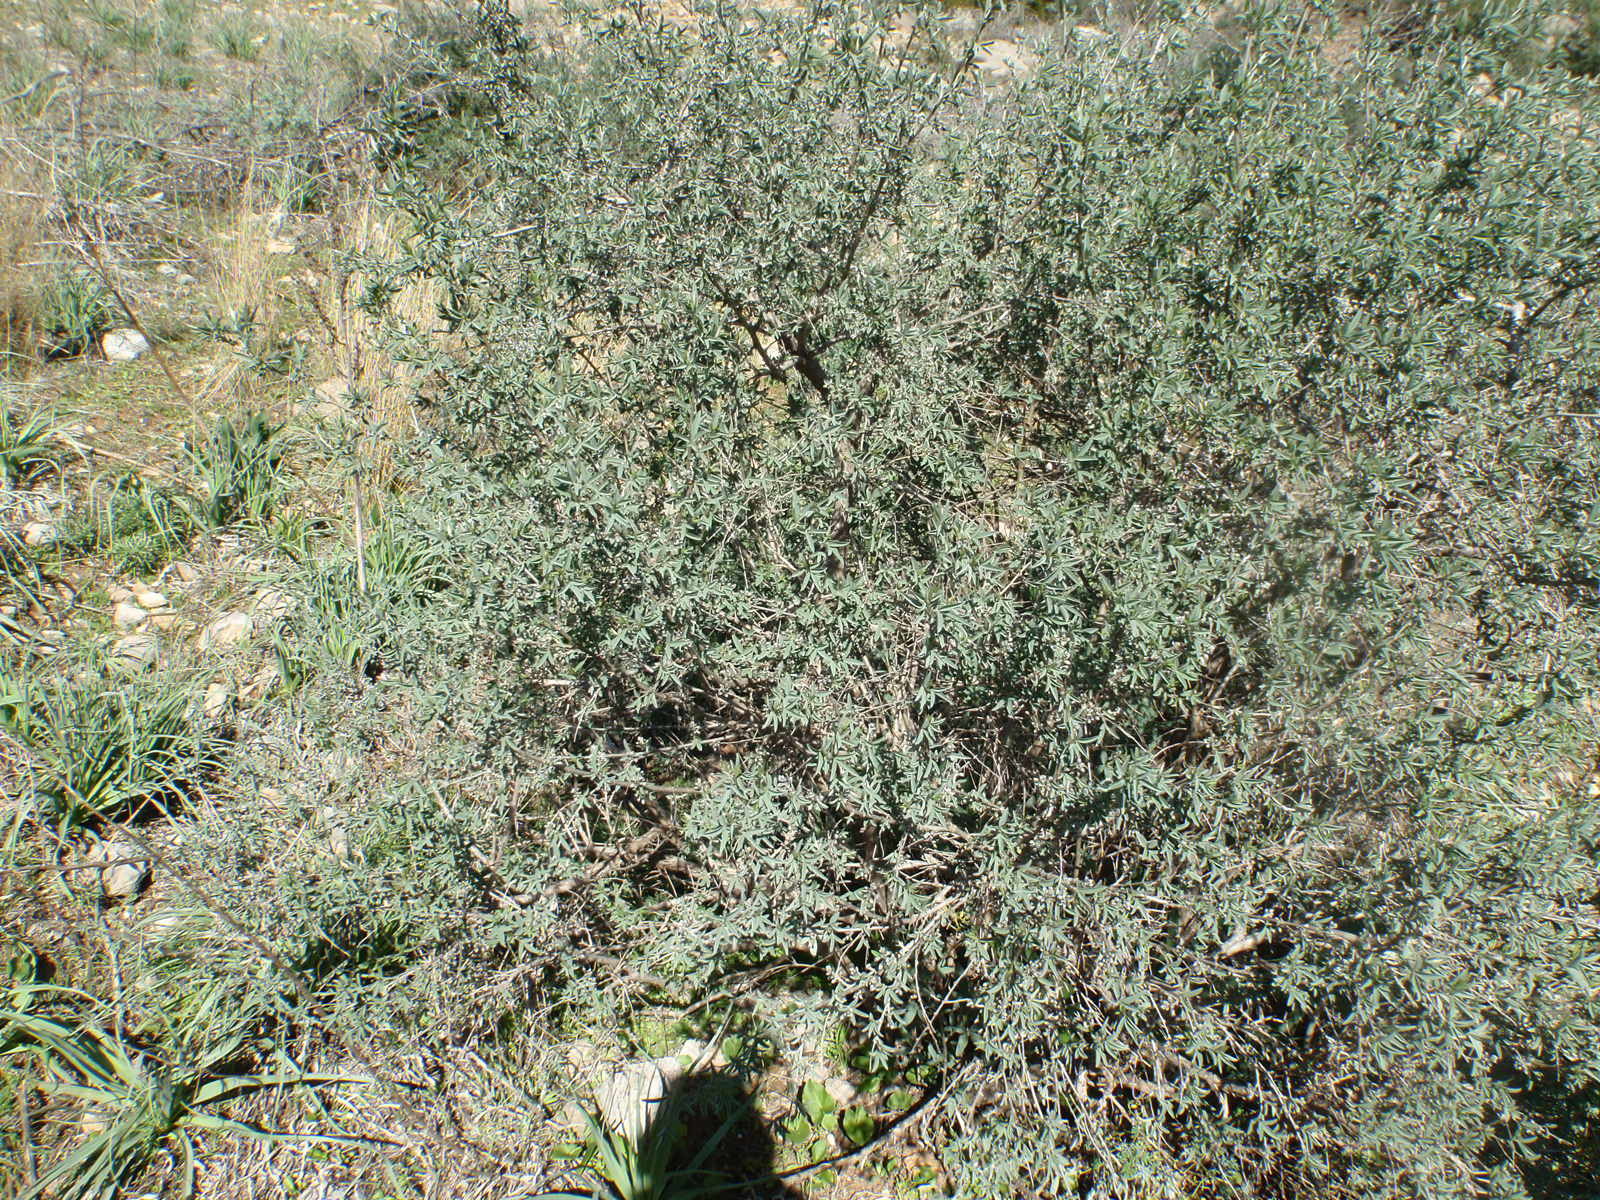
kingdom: Plantae
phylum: Tracheophyta
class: Magnoliopsida
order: Fabales
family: Fabaceae
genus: Anagyris
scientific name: Anagyris foetida
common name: Stinking bean trefoil
